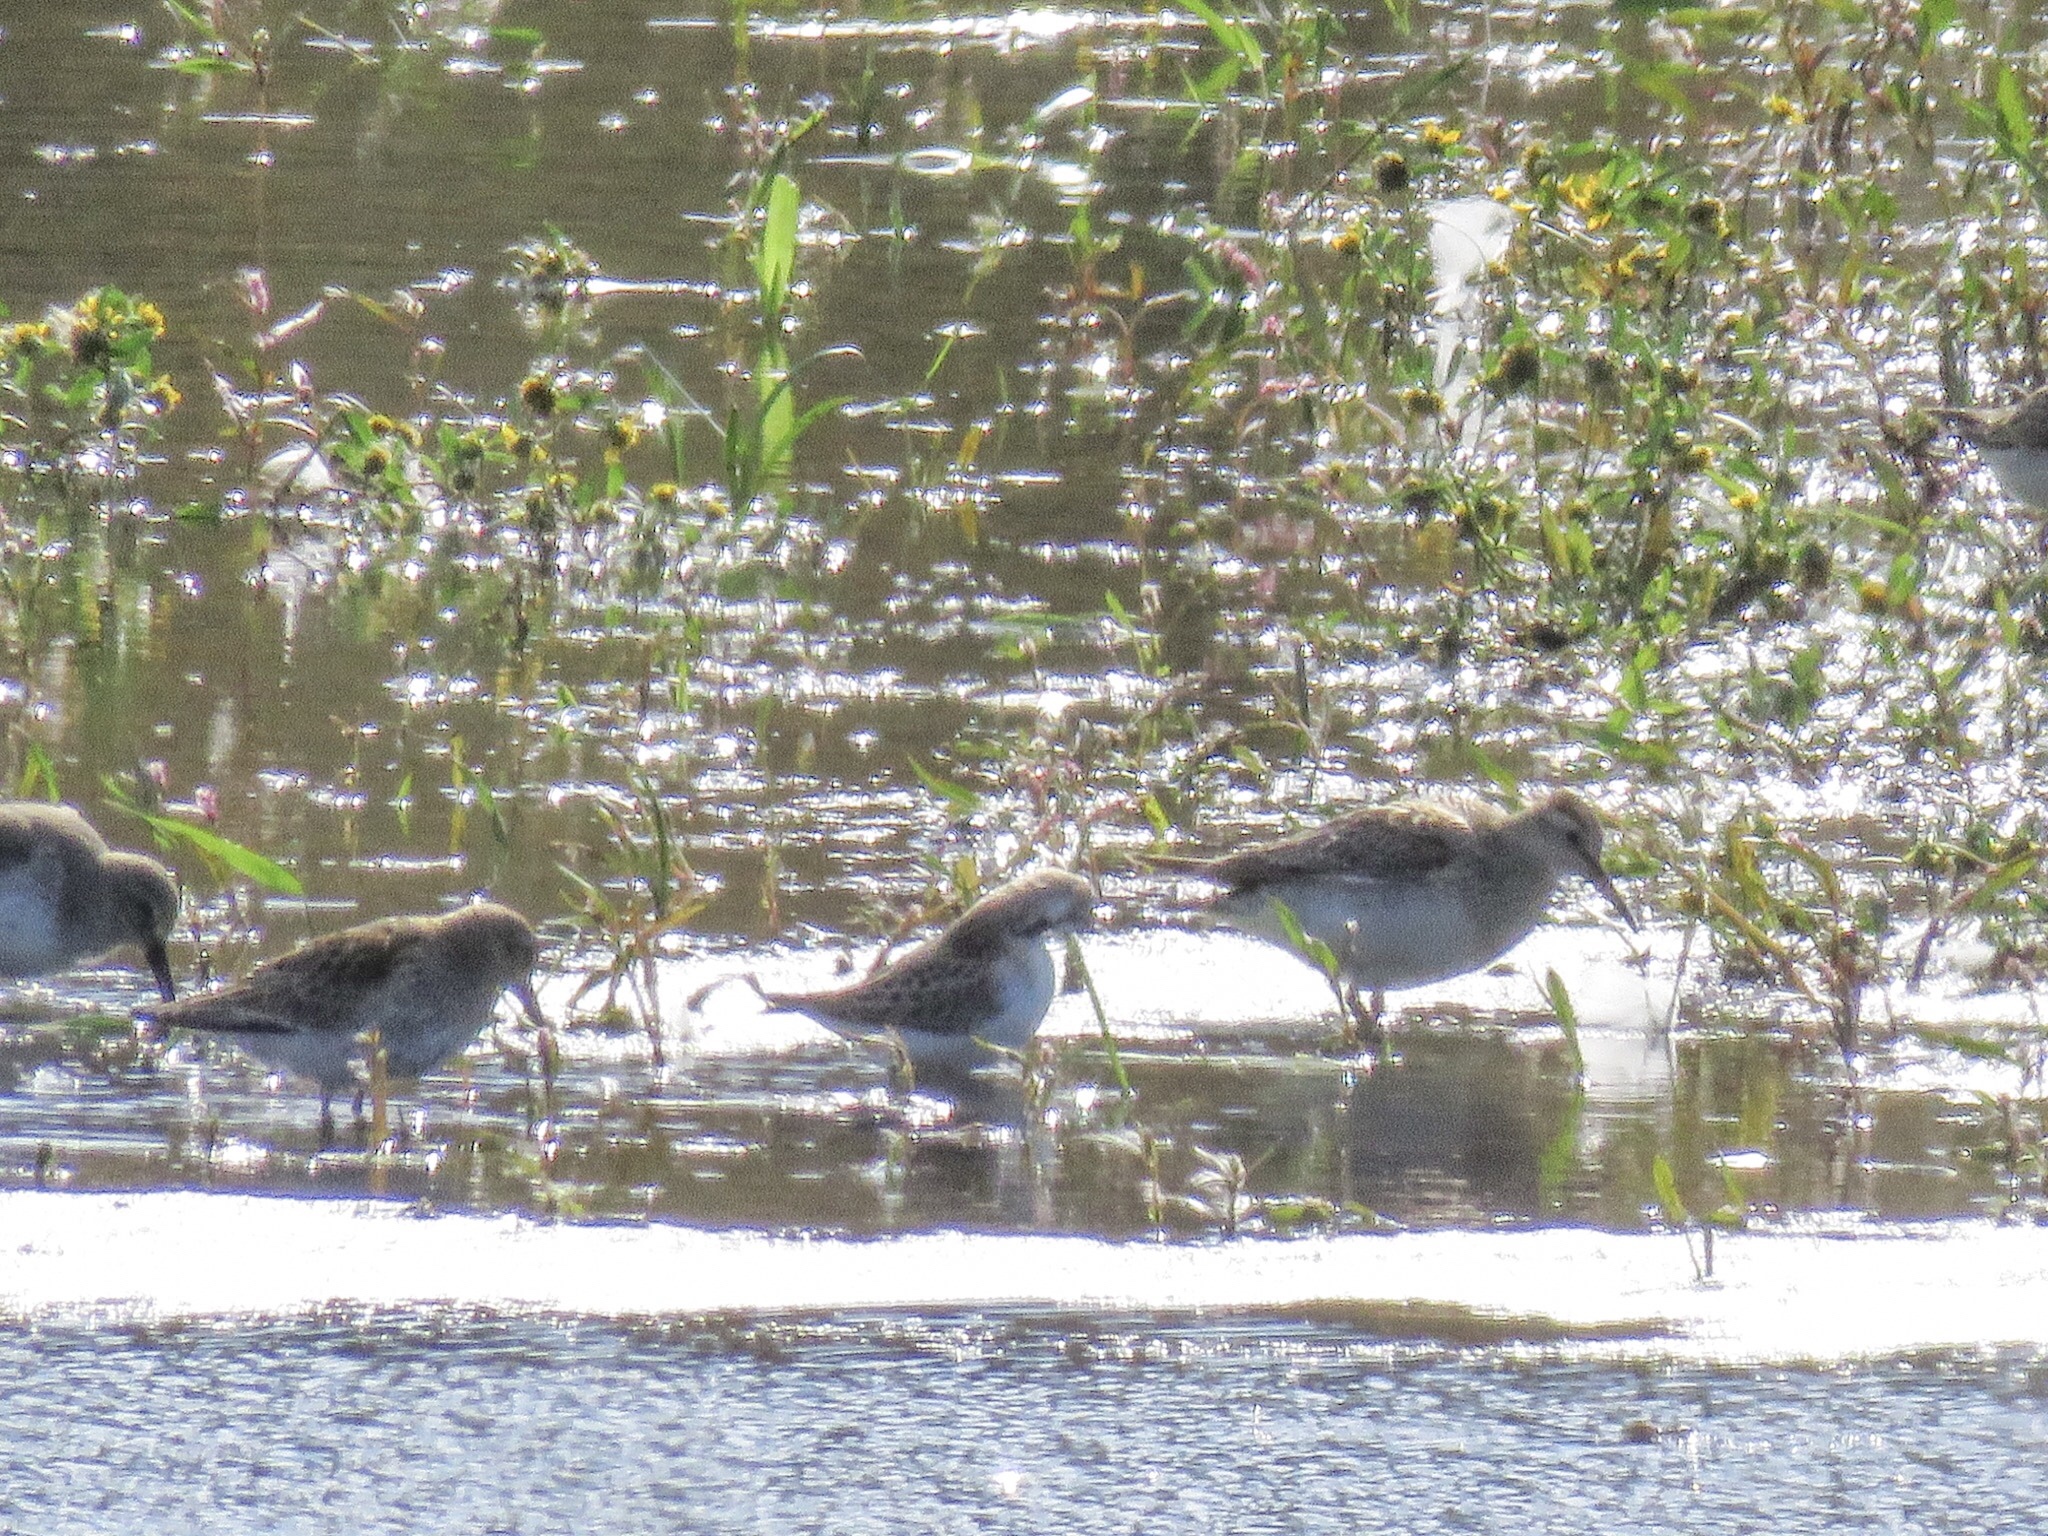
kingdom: Animalia
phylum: Chordata
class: Aves
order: Charadriiformes
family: Scolopacidae
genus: Calidris
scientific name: Calidris melanotos
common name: Pectoral sandpiper
